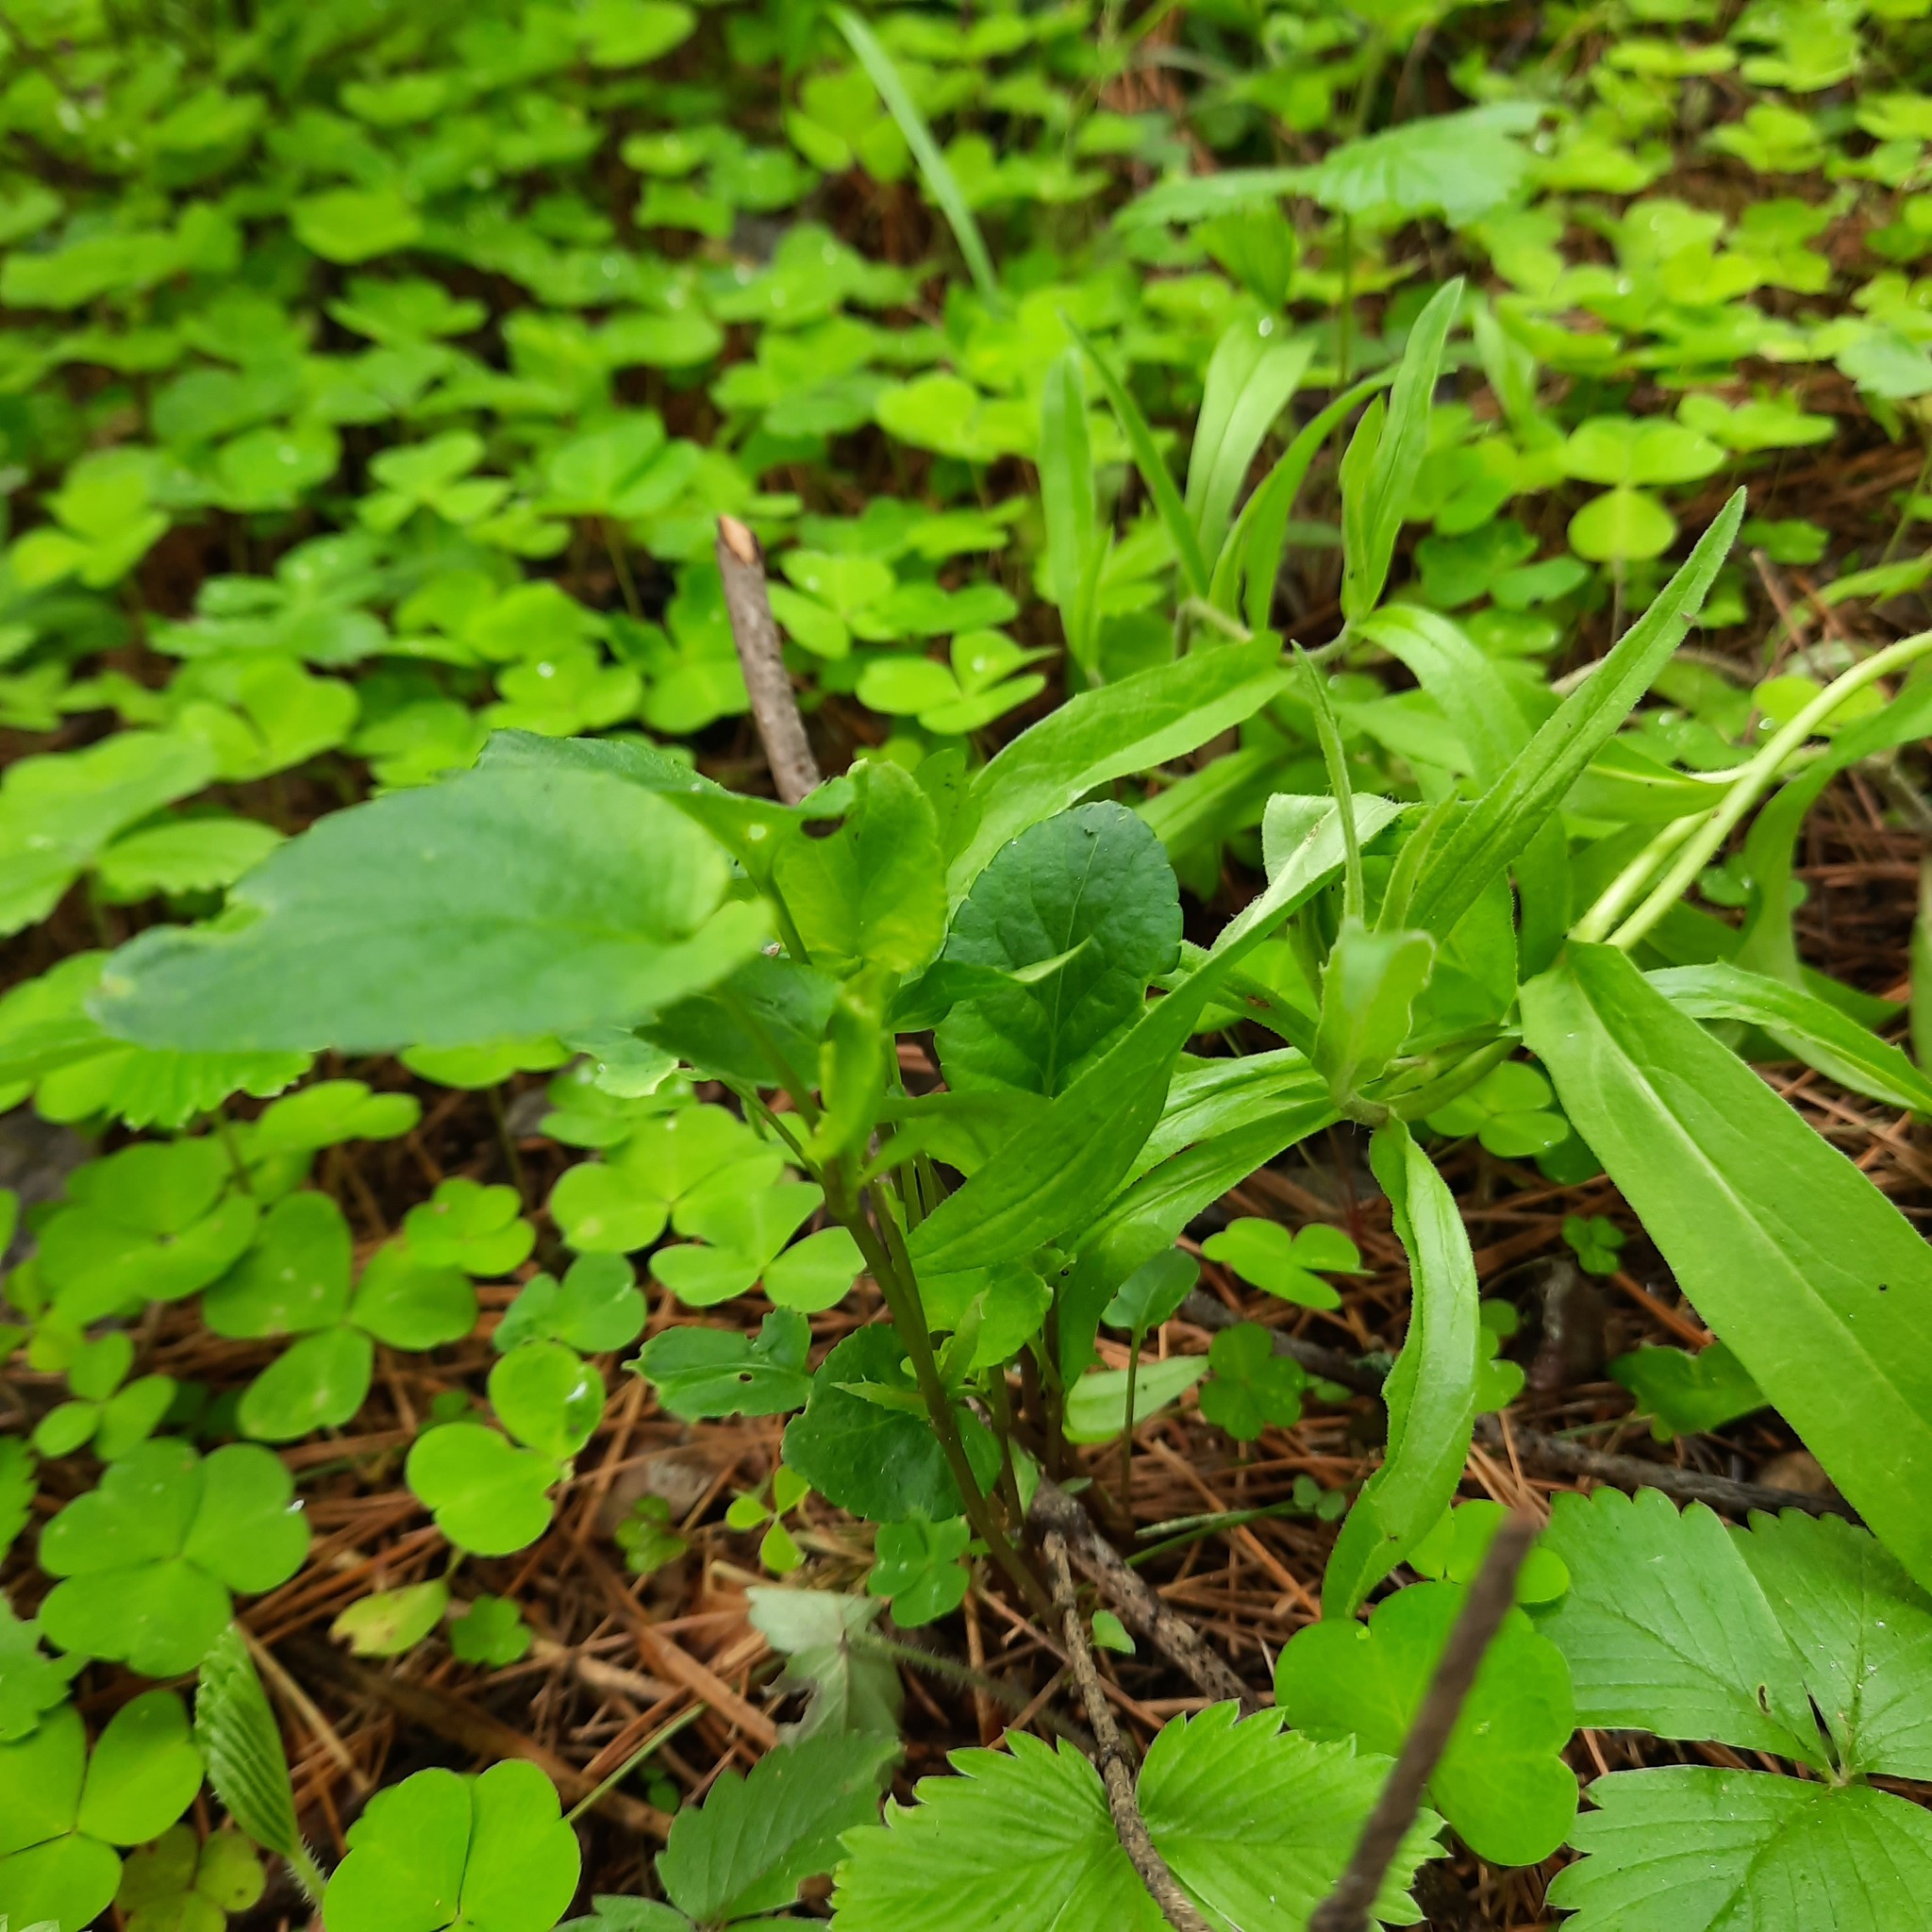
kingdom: Plantae
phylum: Tracheophyta
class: Magnoliopsida
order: Malpighiales
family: Violaceae
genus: Viola
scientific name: Viola
